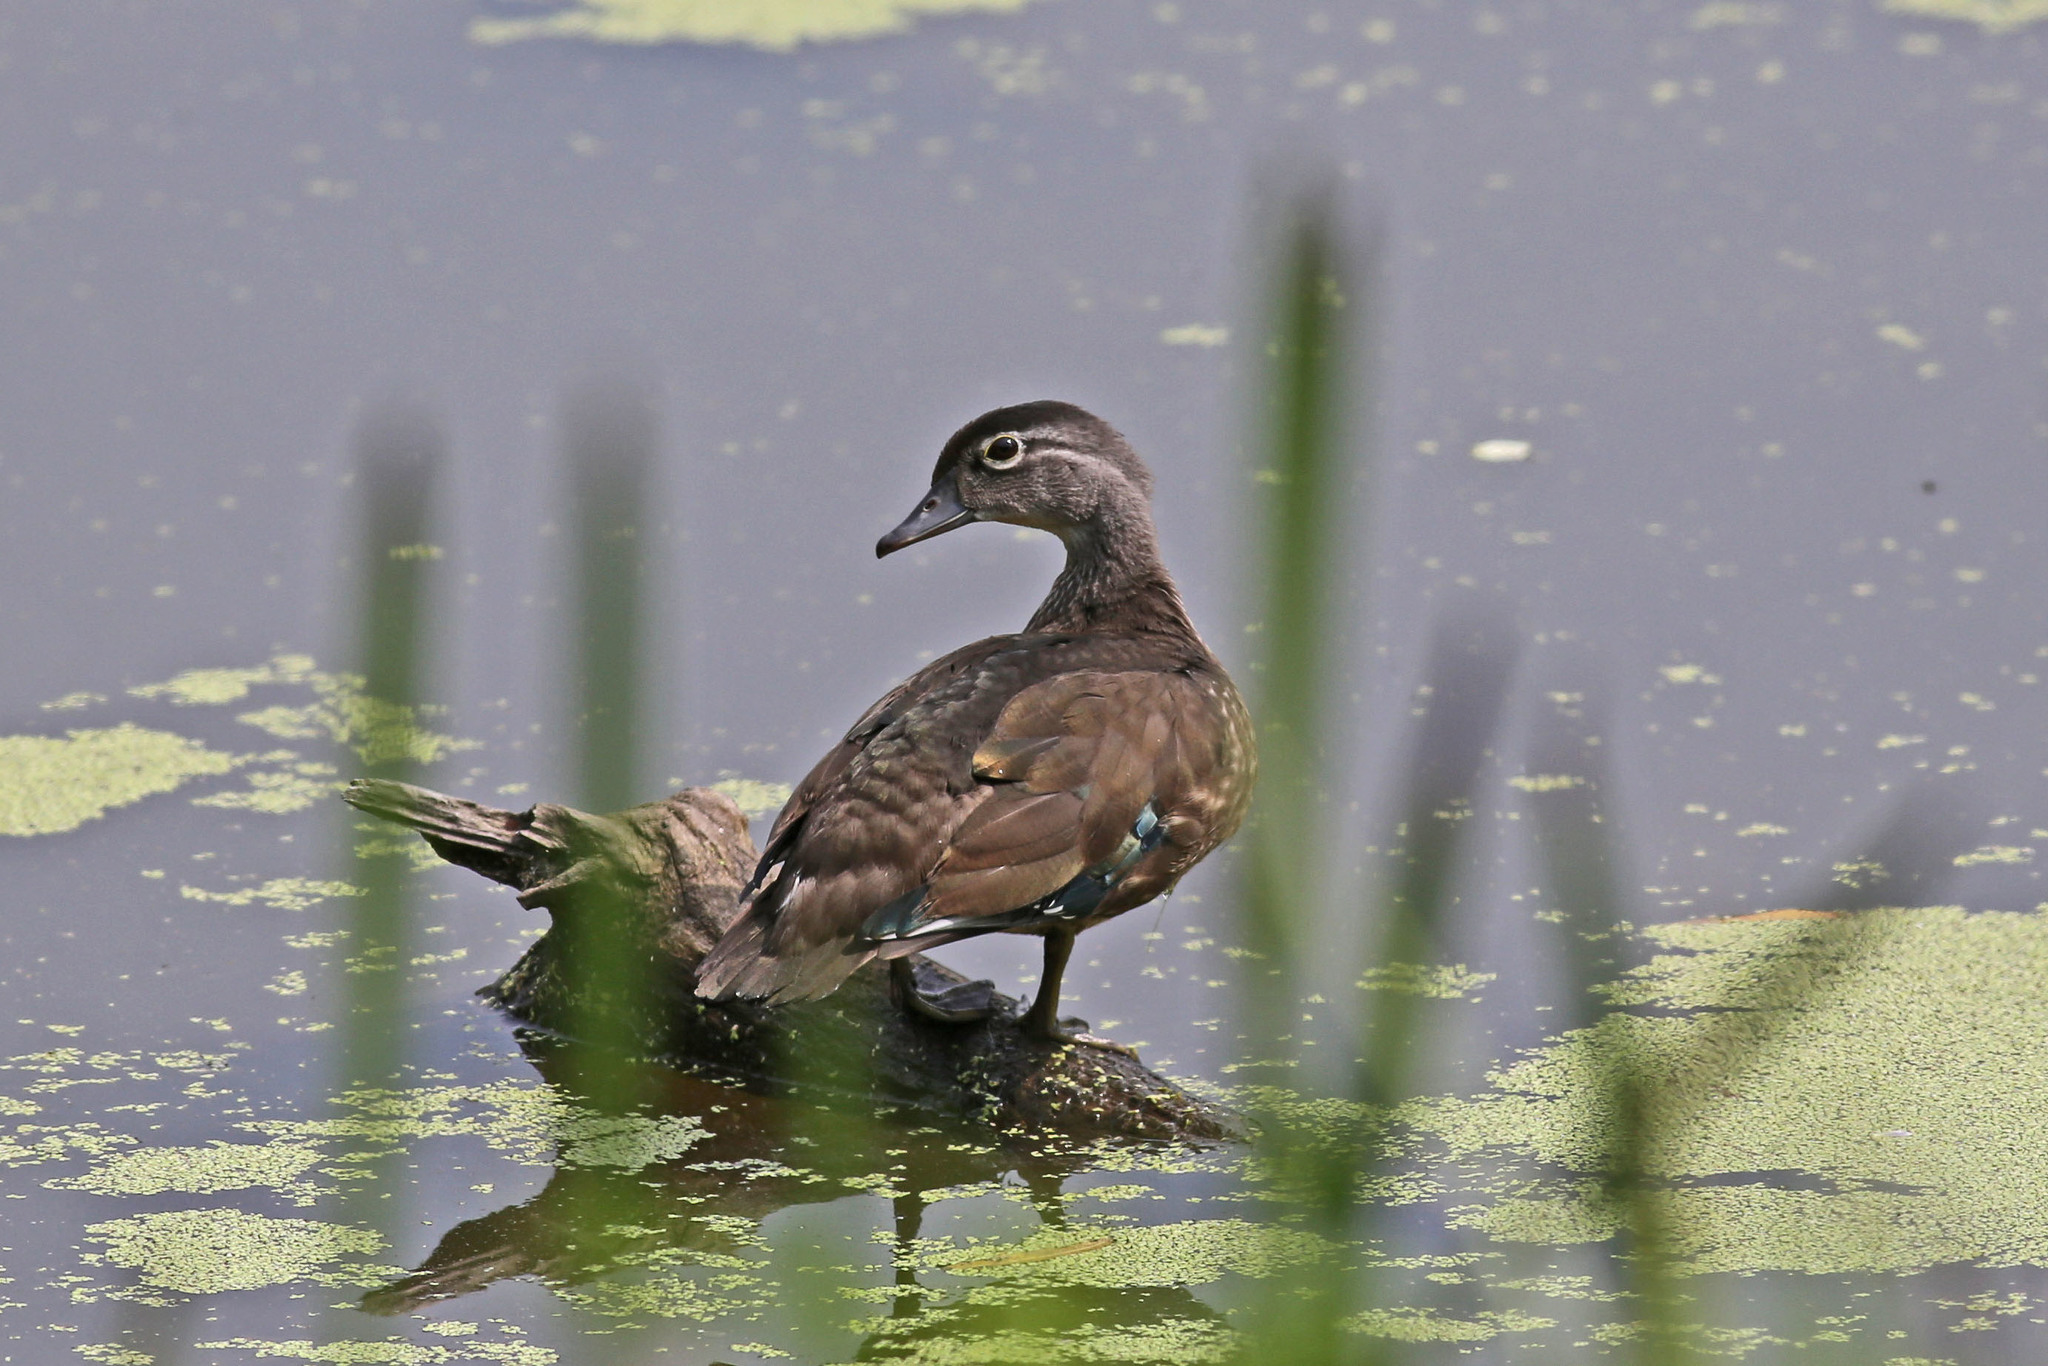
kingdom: Animalia
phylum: Chordata
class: Aves
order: Anseriformes
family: Anatidae
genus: Aix
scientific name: Aix sponsa
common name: Wood duck
